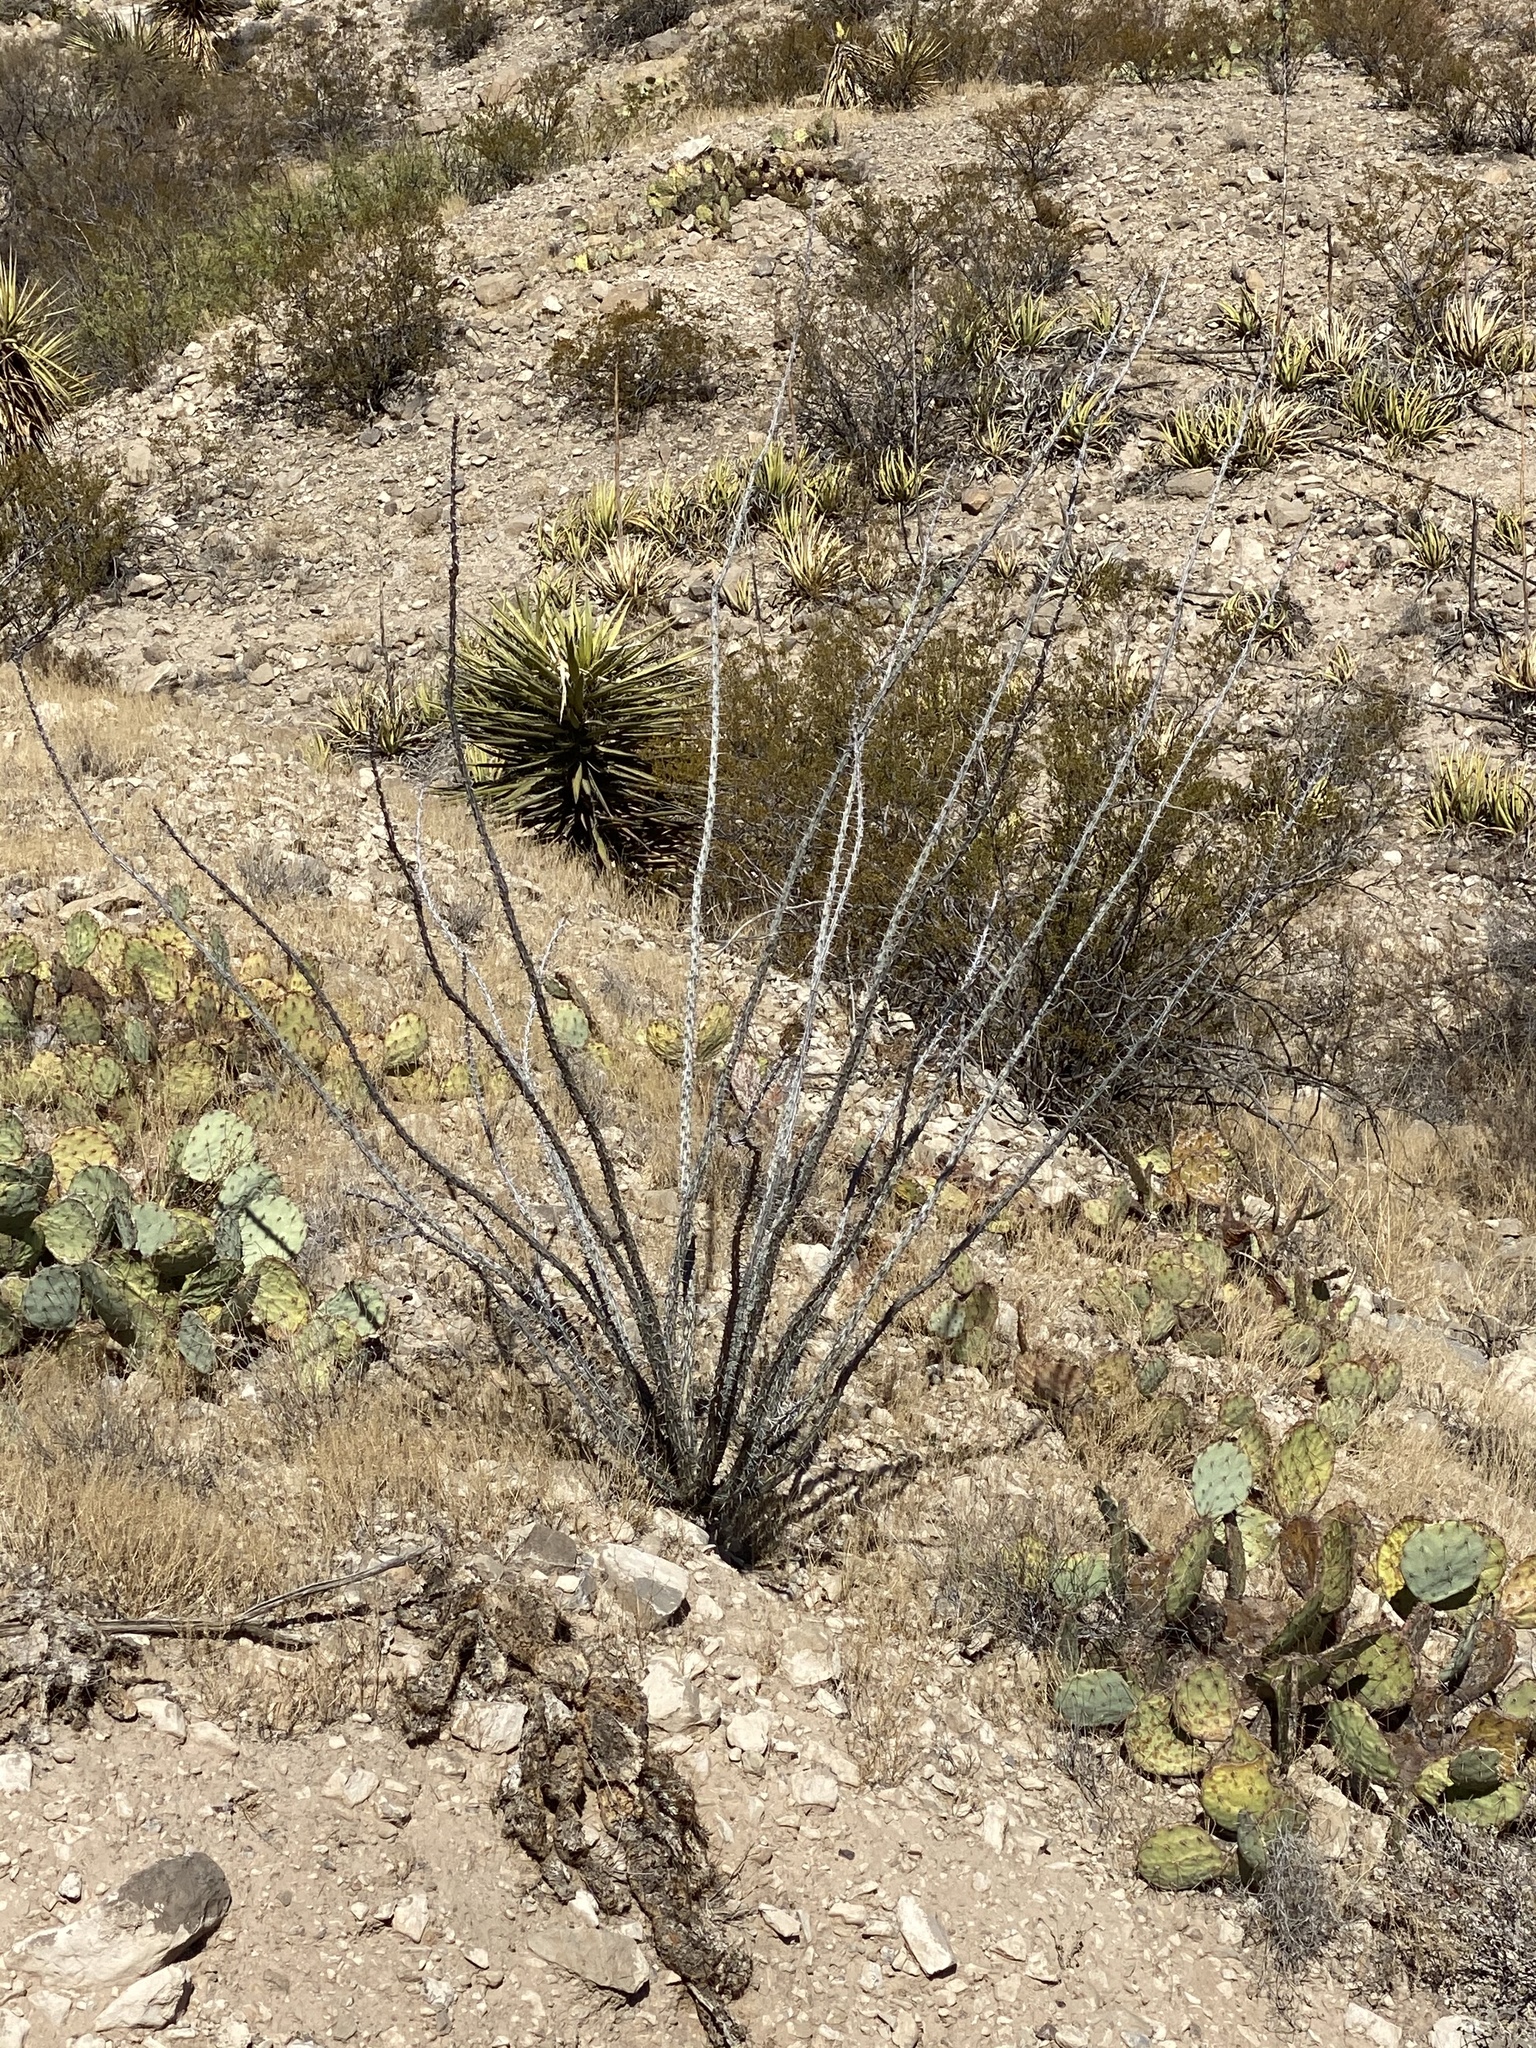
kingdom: Plantae
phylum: Tracheophyta
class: Magnoliopsida
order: Ericales
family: Fouquieriaceae
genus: Fouquieria
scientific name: Fouquieria splendens
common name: Vine-cactus
